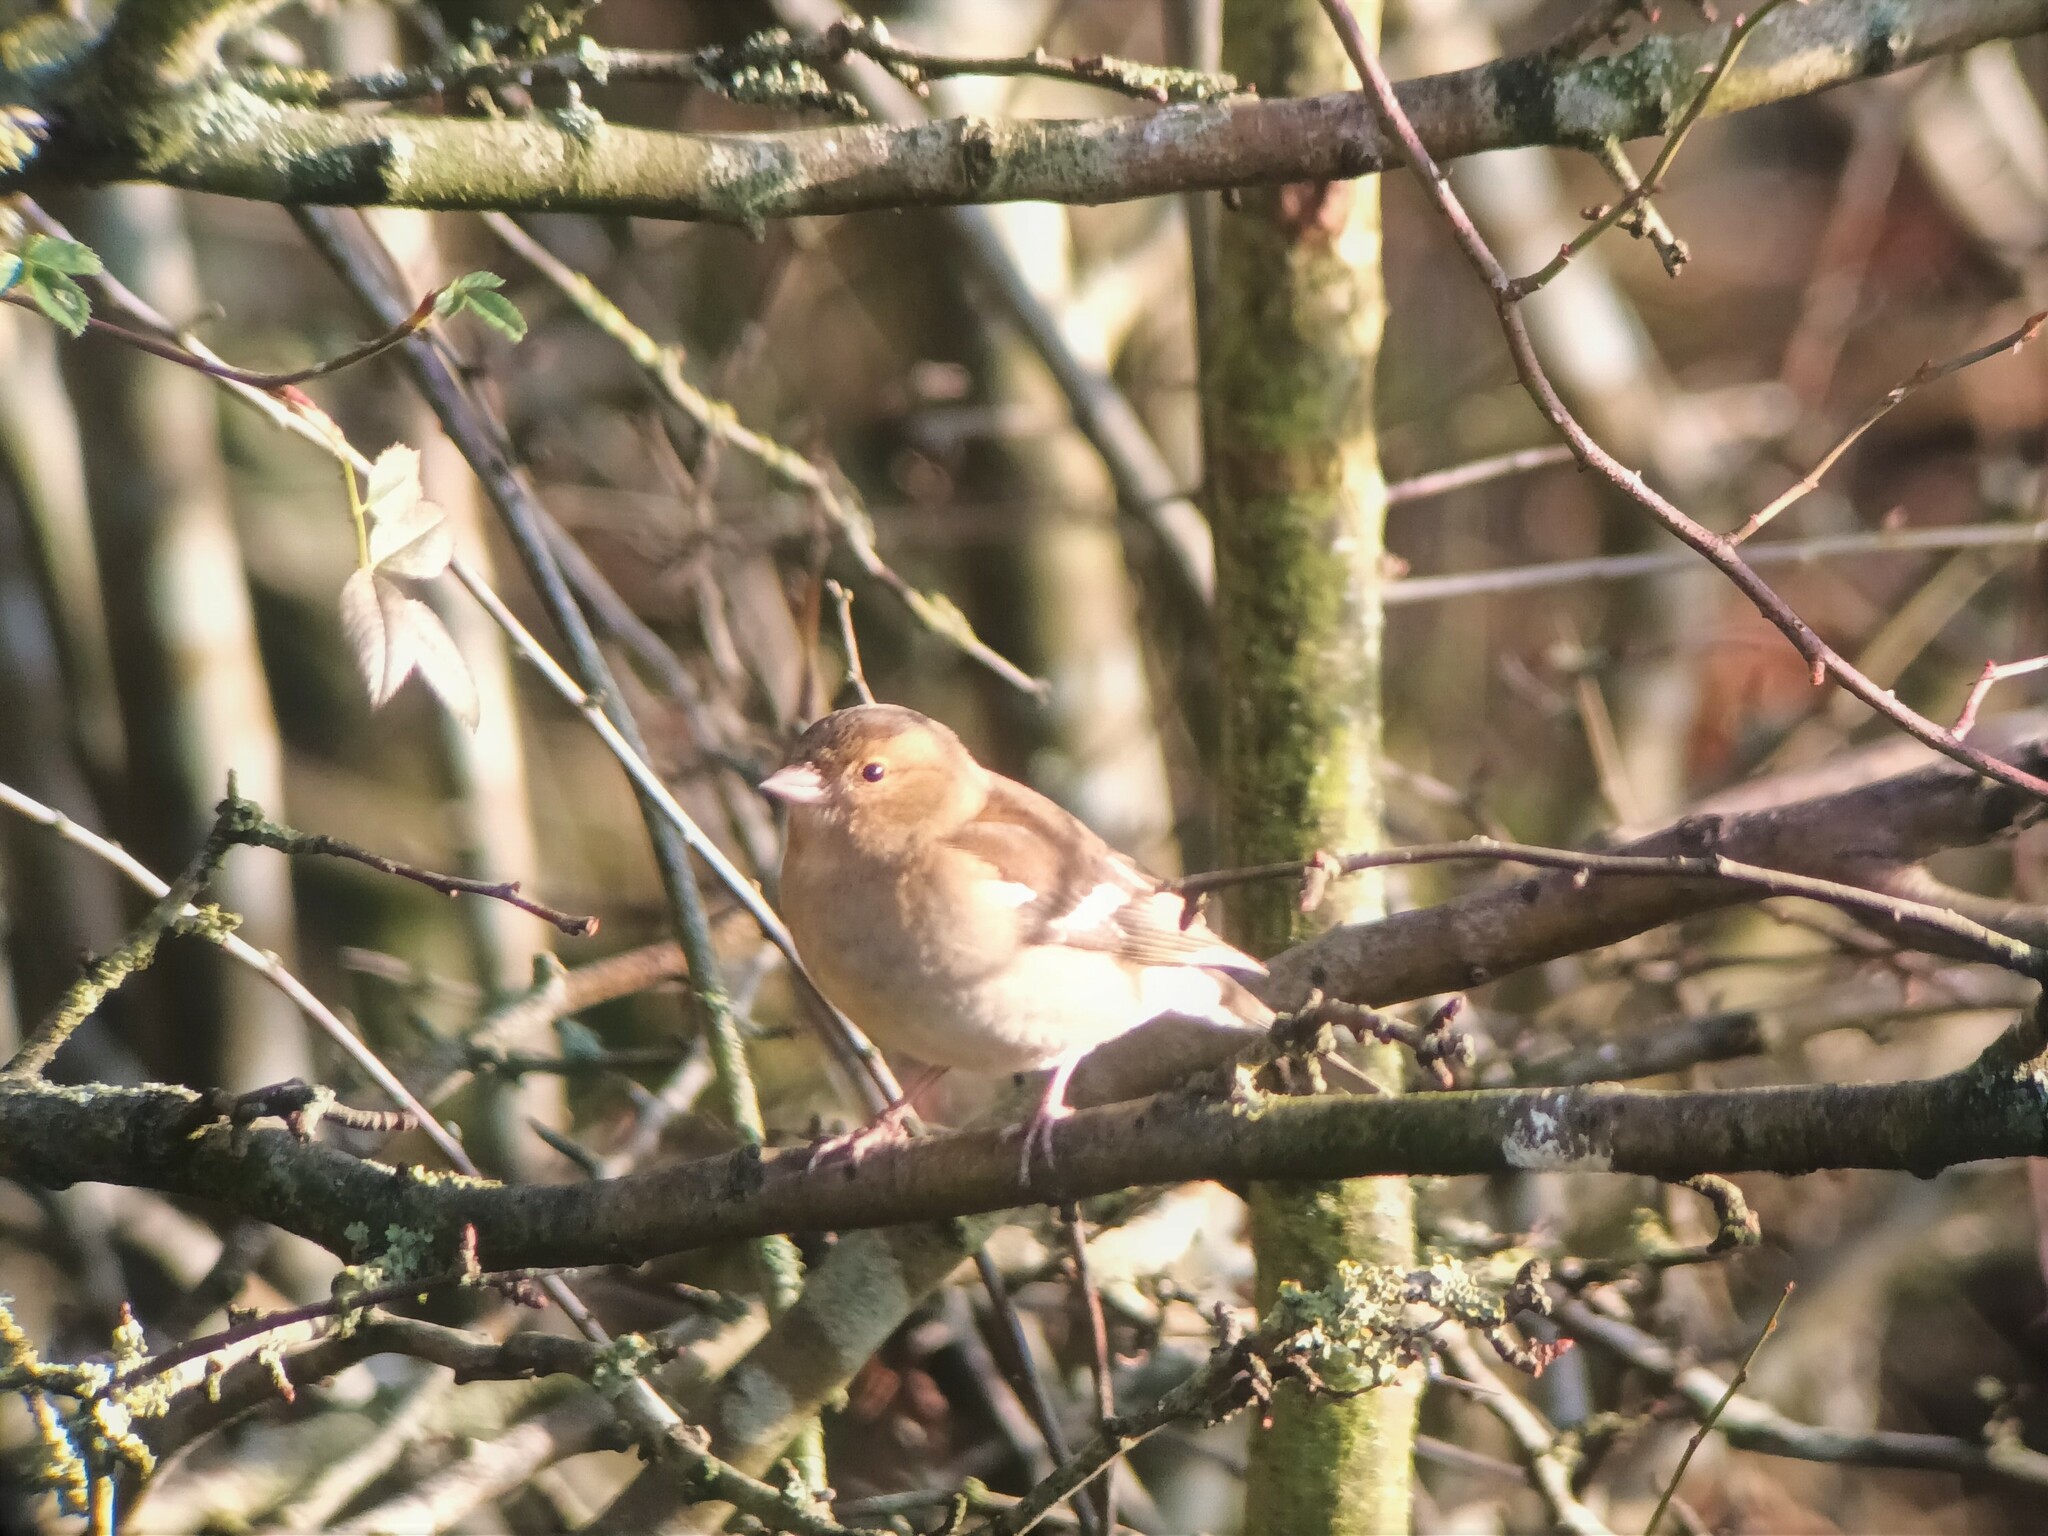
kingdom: Animalia
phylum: Chordata
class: Aves
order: Passeriformes
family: Fringillidae
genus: Fringilla
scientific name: Fringilla coelebs
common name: Common chaffinch
